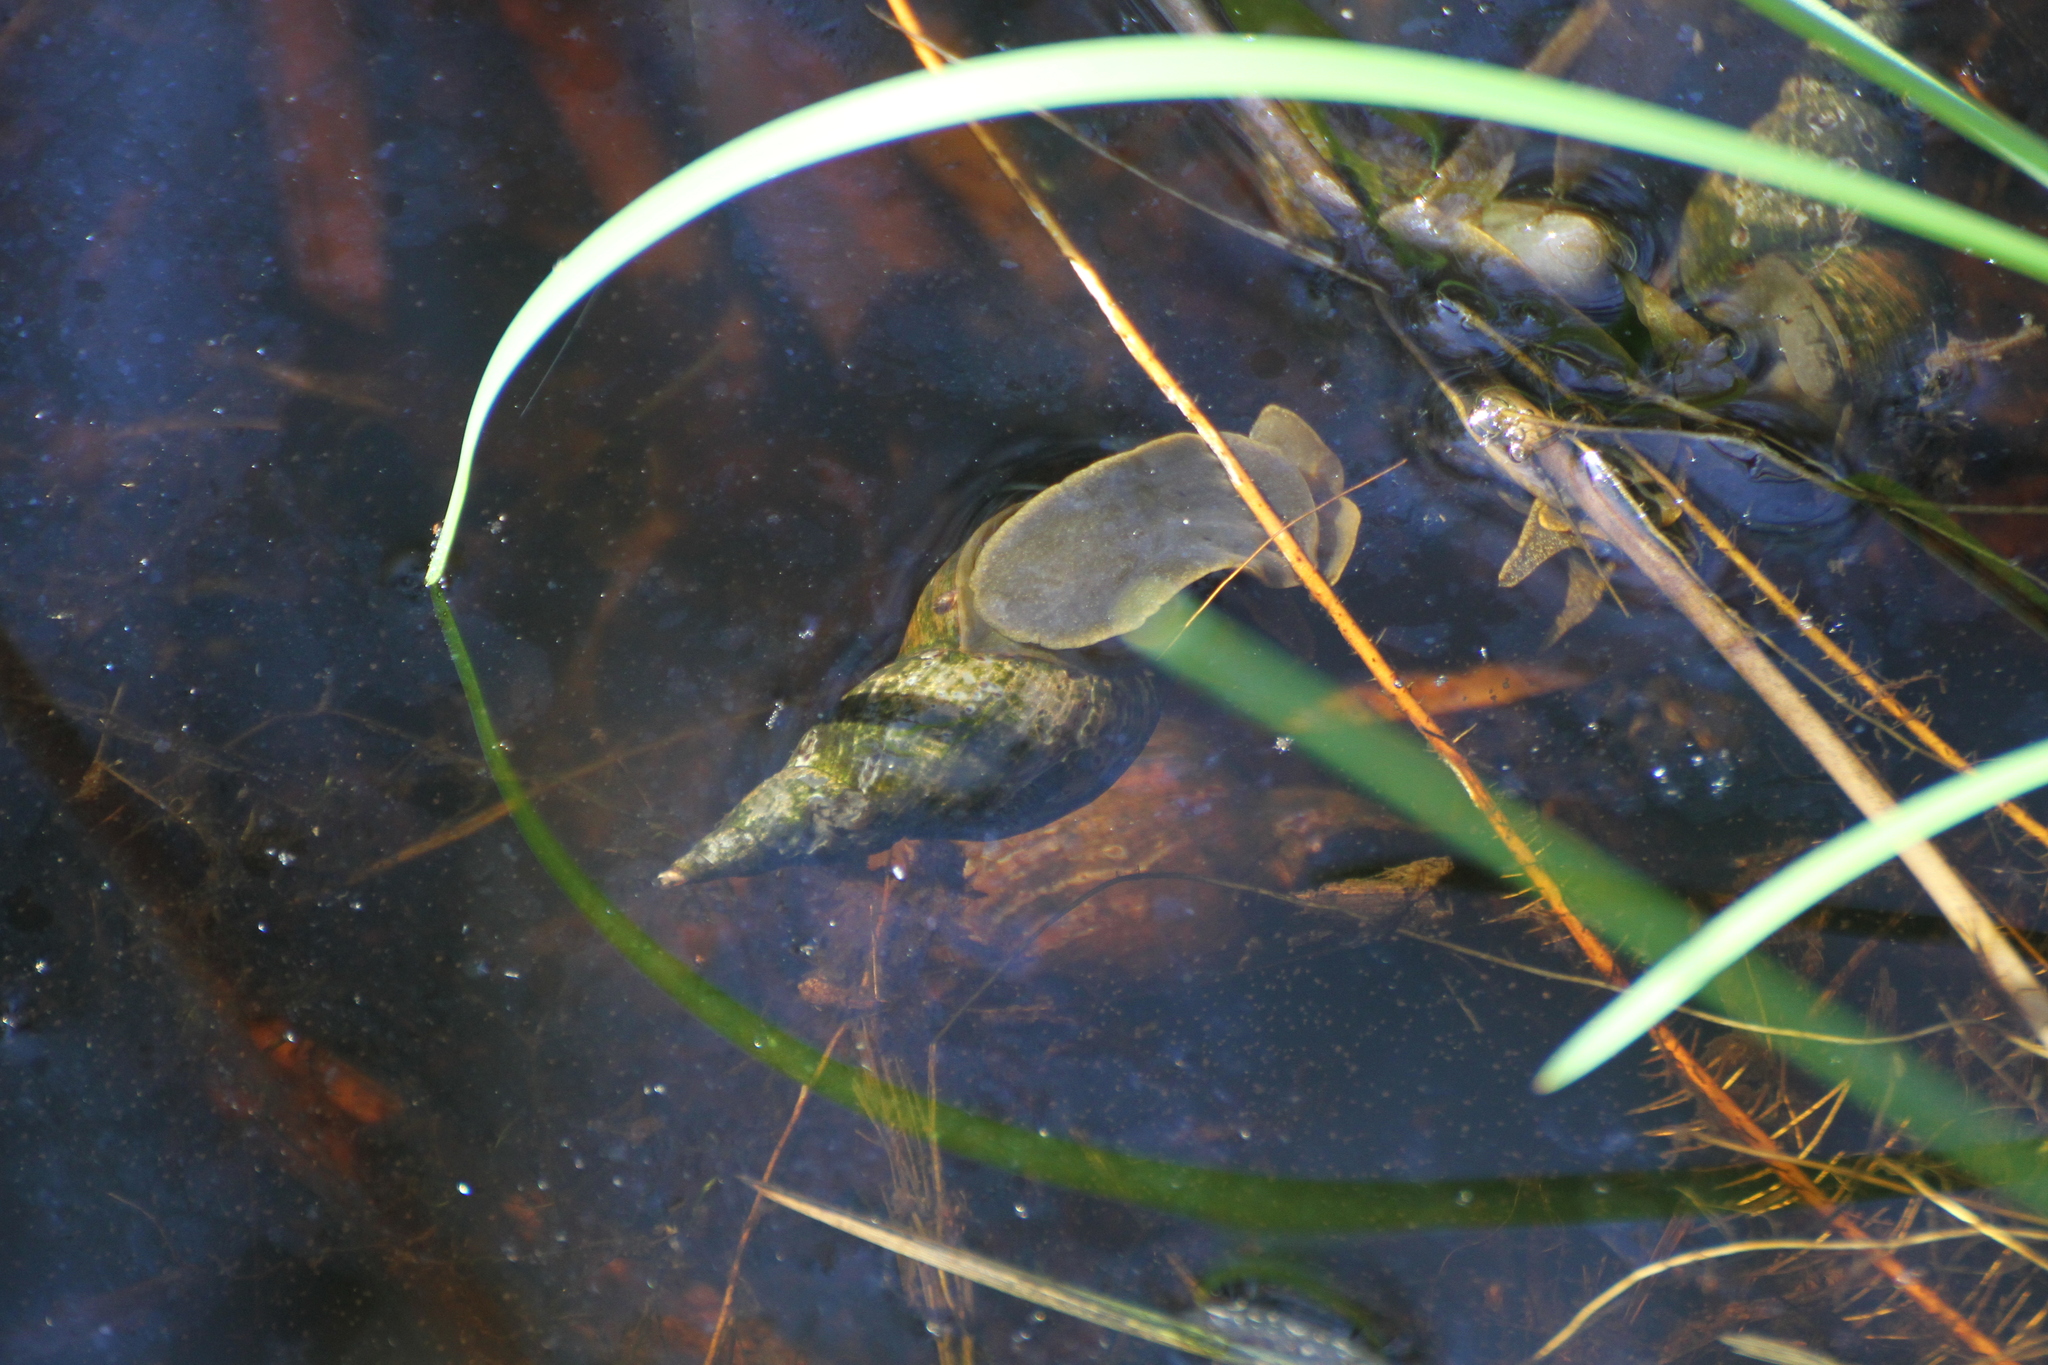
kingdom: Animalia
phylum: Mollusca
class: Gastropoda
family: Lymnaeidae
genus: Lymnaea
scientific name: Lymnaea stagnalis
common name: Great pond snail
